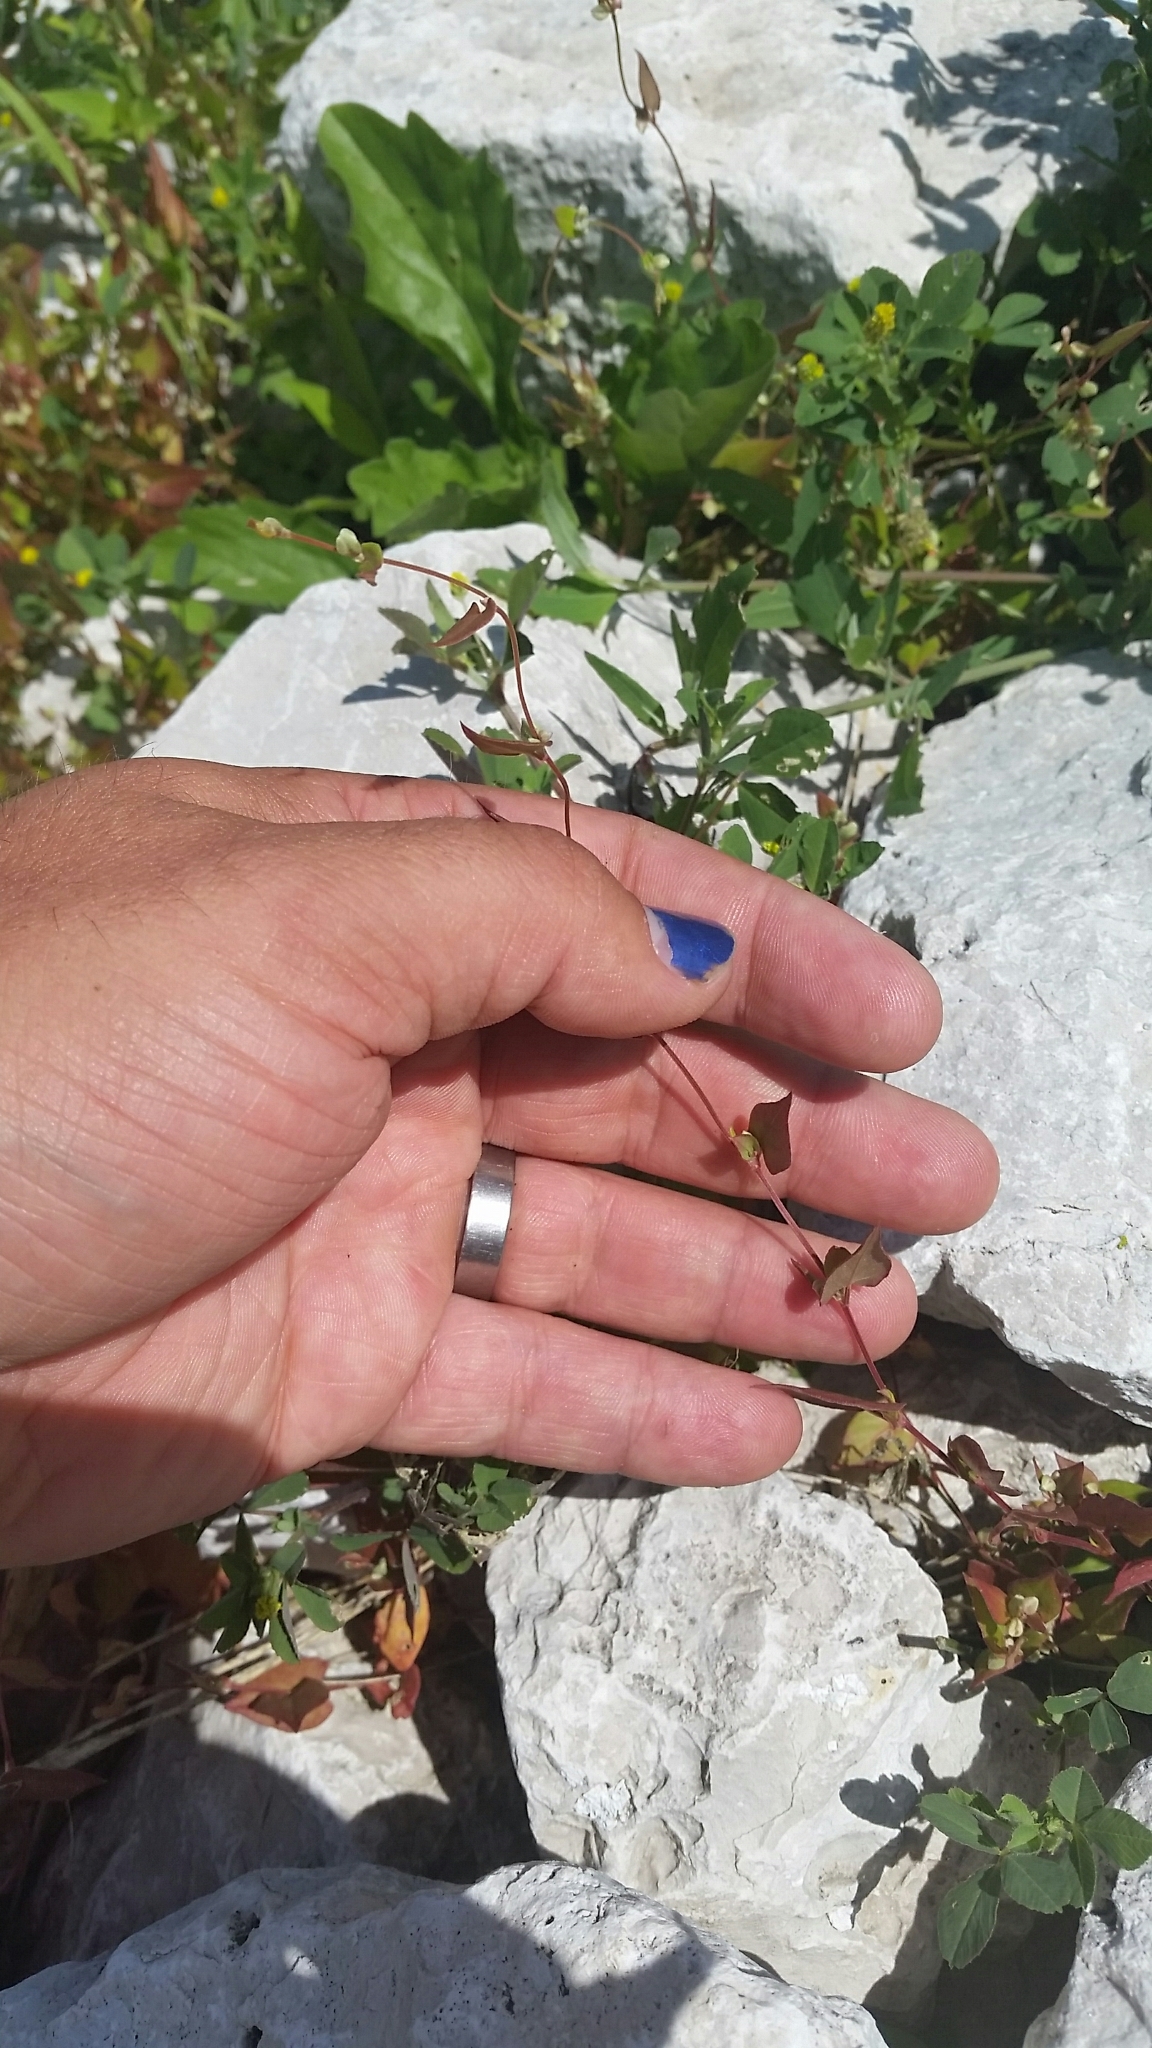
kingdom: Plantae
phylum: Tracheophyta
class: Magnoliopsida
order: Caryophyllales
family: Polygonaceae
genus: Fallopia
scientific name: Fallopia convolvulus
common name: Black bindweed
